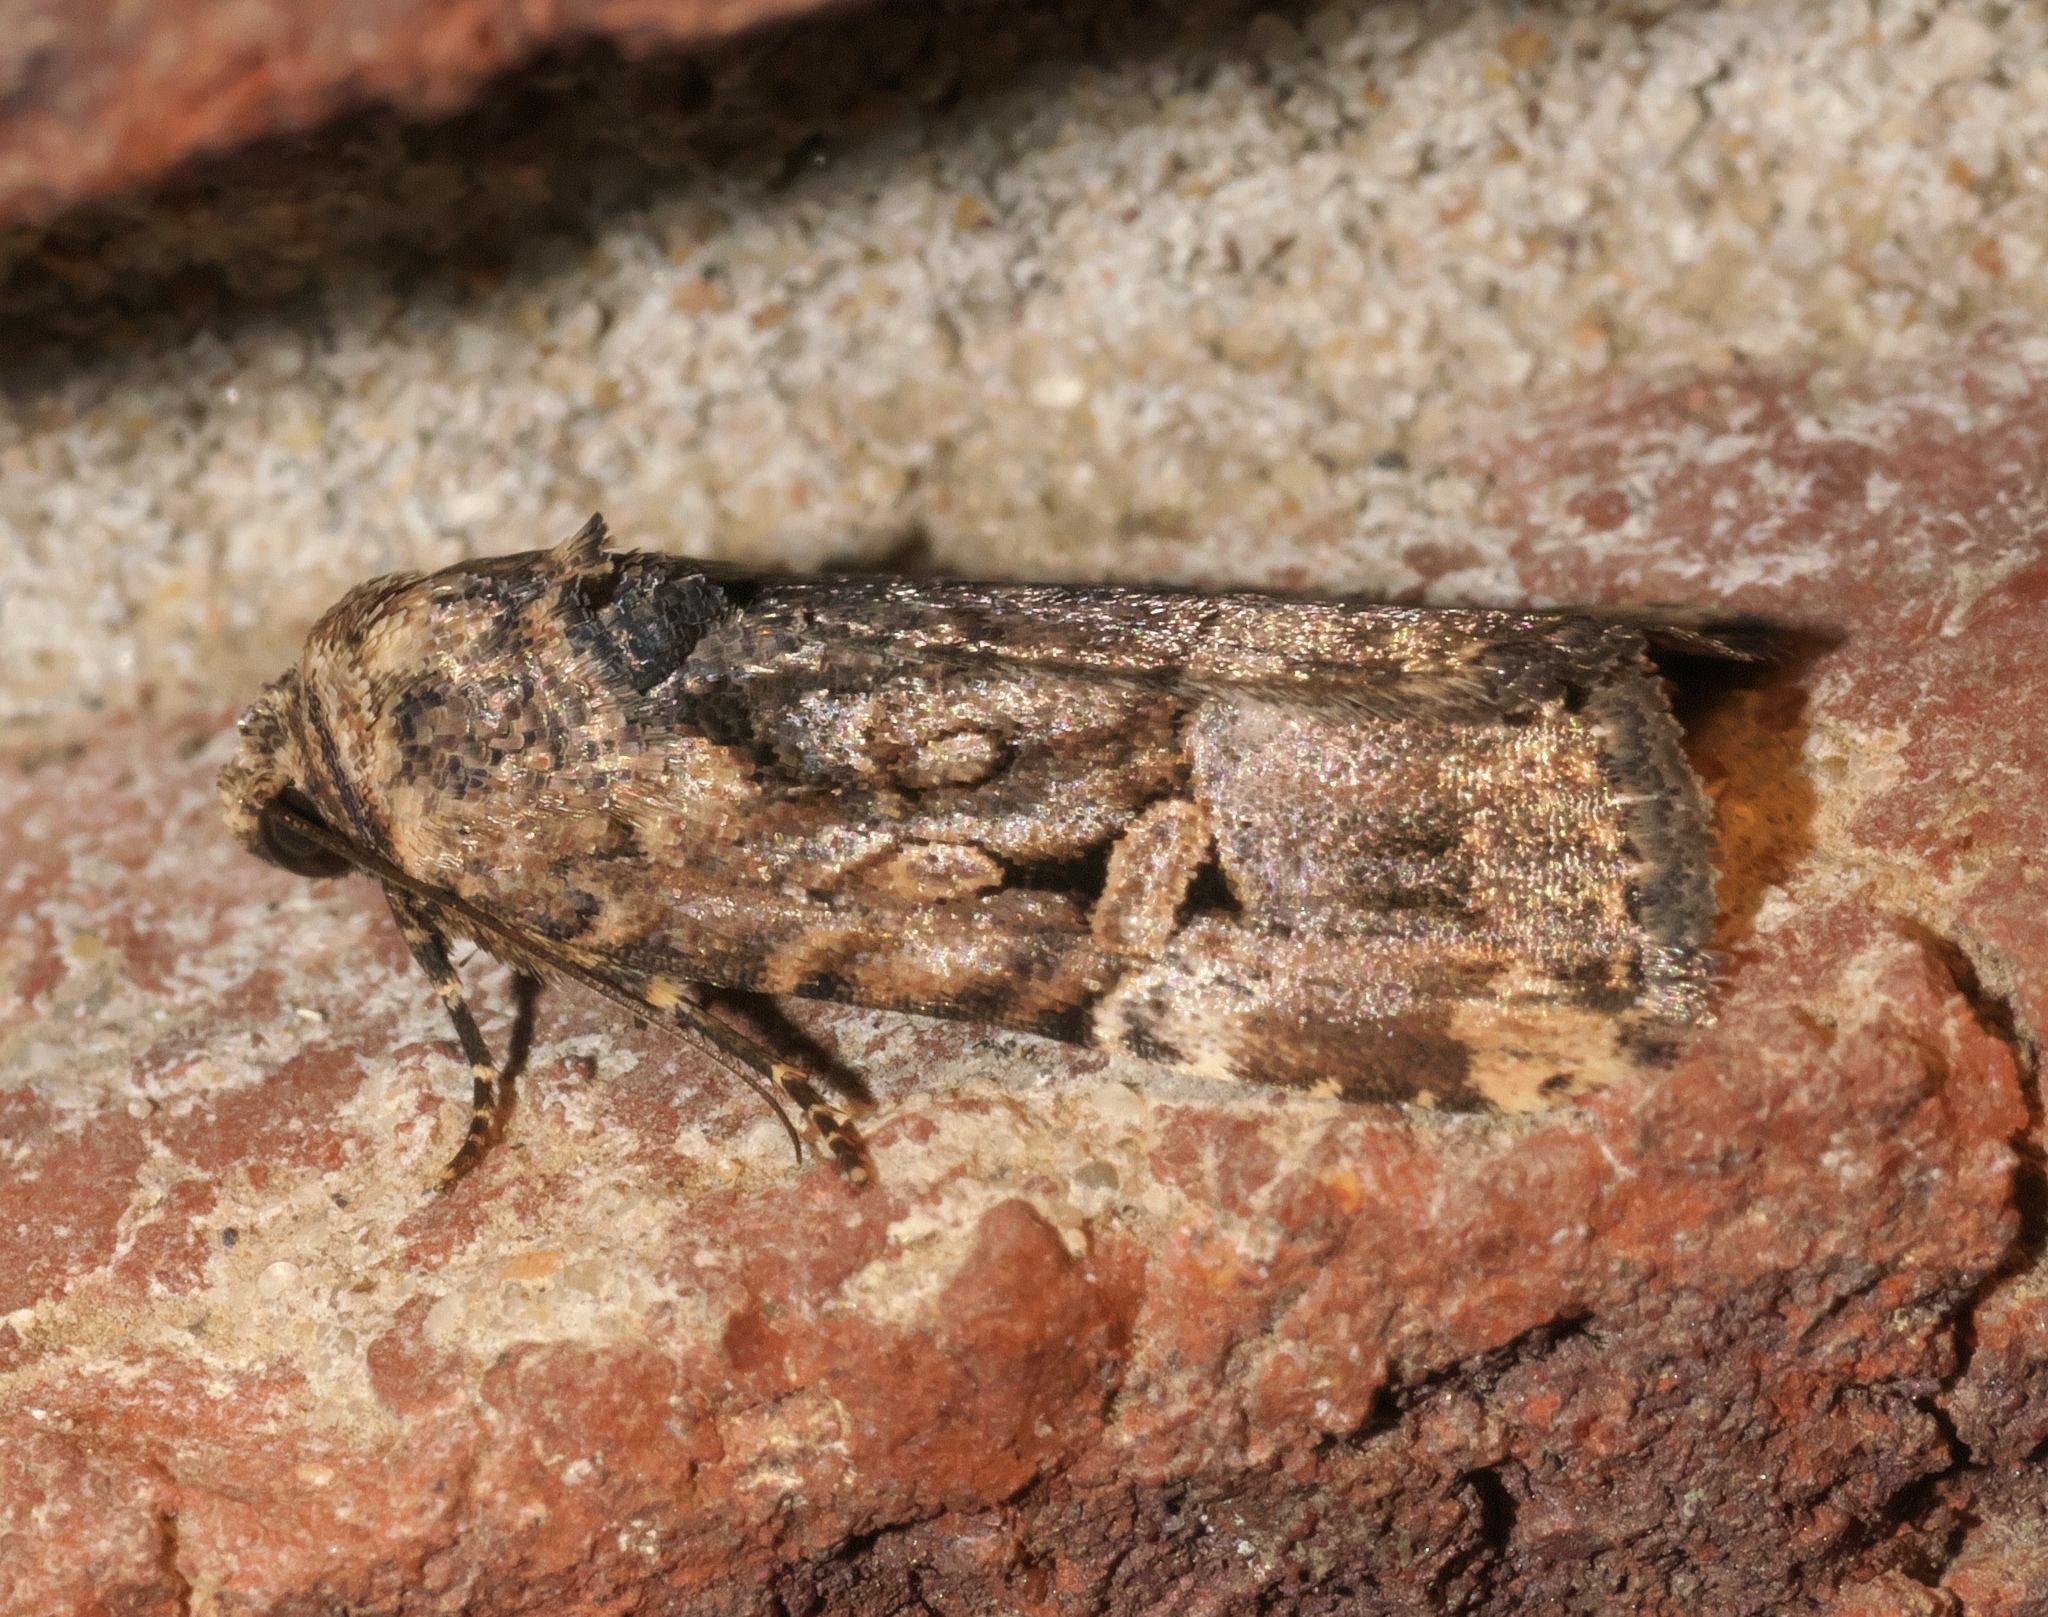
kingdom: Animalia
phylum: Arthropoda
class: Insecta
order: Lepidoptera
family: Noctuidae
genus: Elaphria
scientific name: Elaphria chalcedonia
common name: Chalcedony midget
